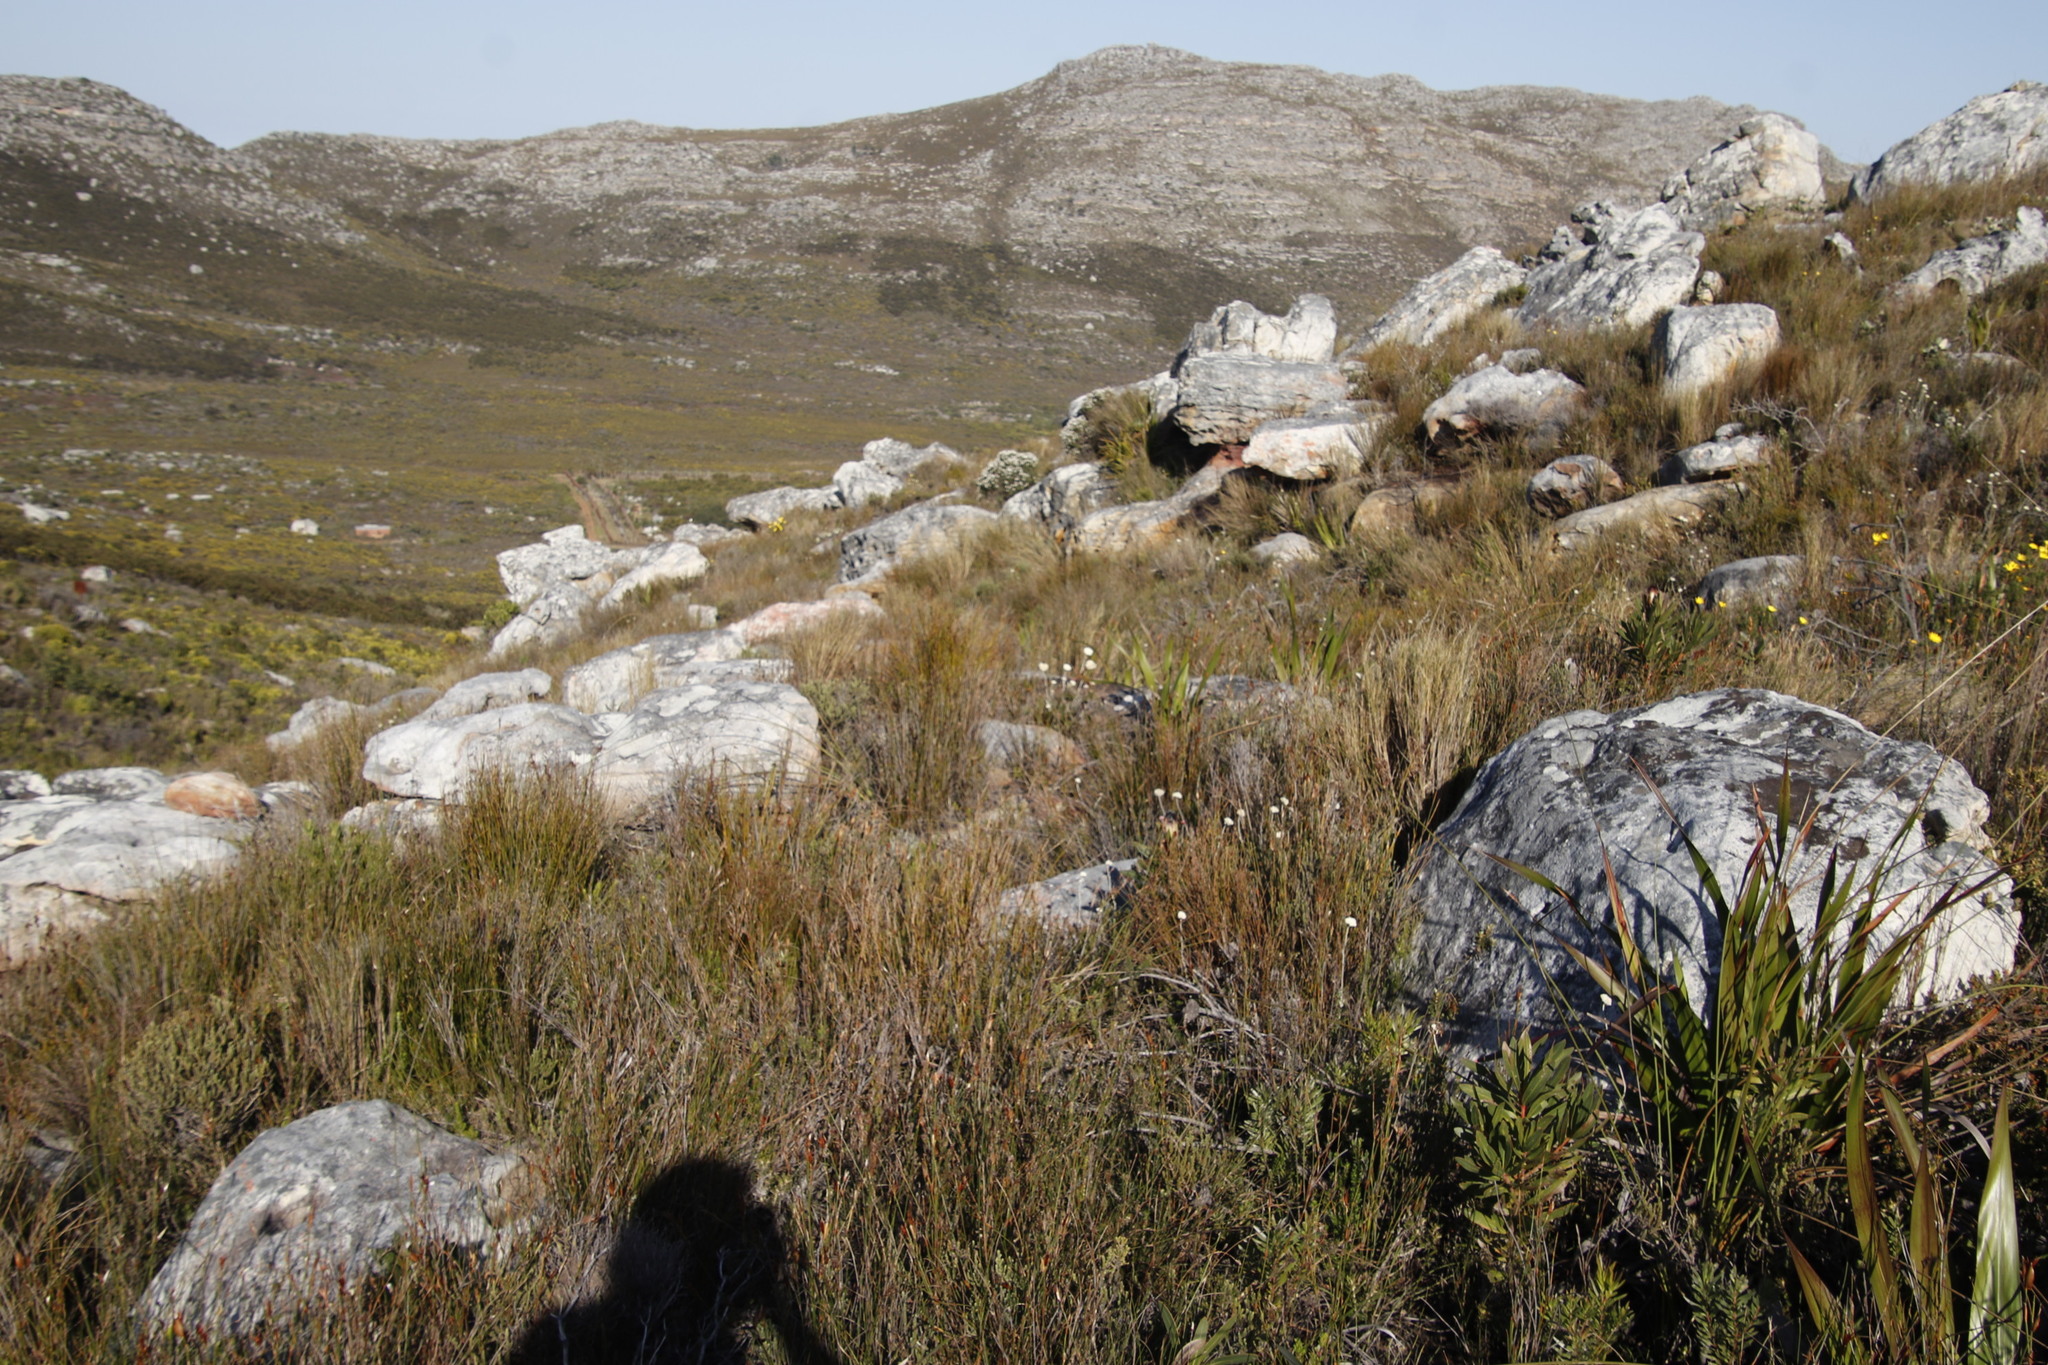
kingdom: Plantae
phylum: Tracheophyta
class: Magnoliopsida
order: Asterales
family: Asteraceae
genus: Anaxeton
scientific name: Anaxeton laeve
